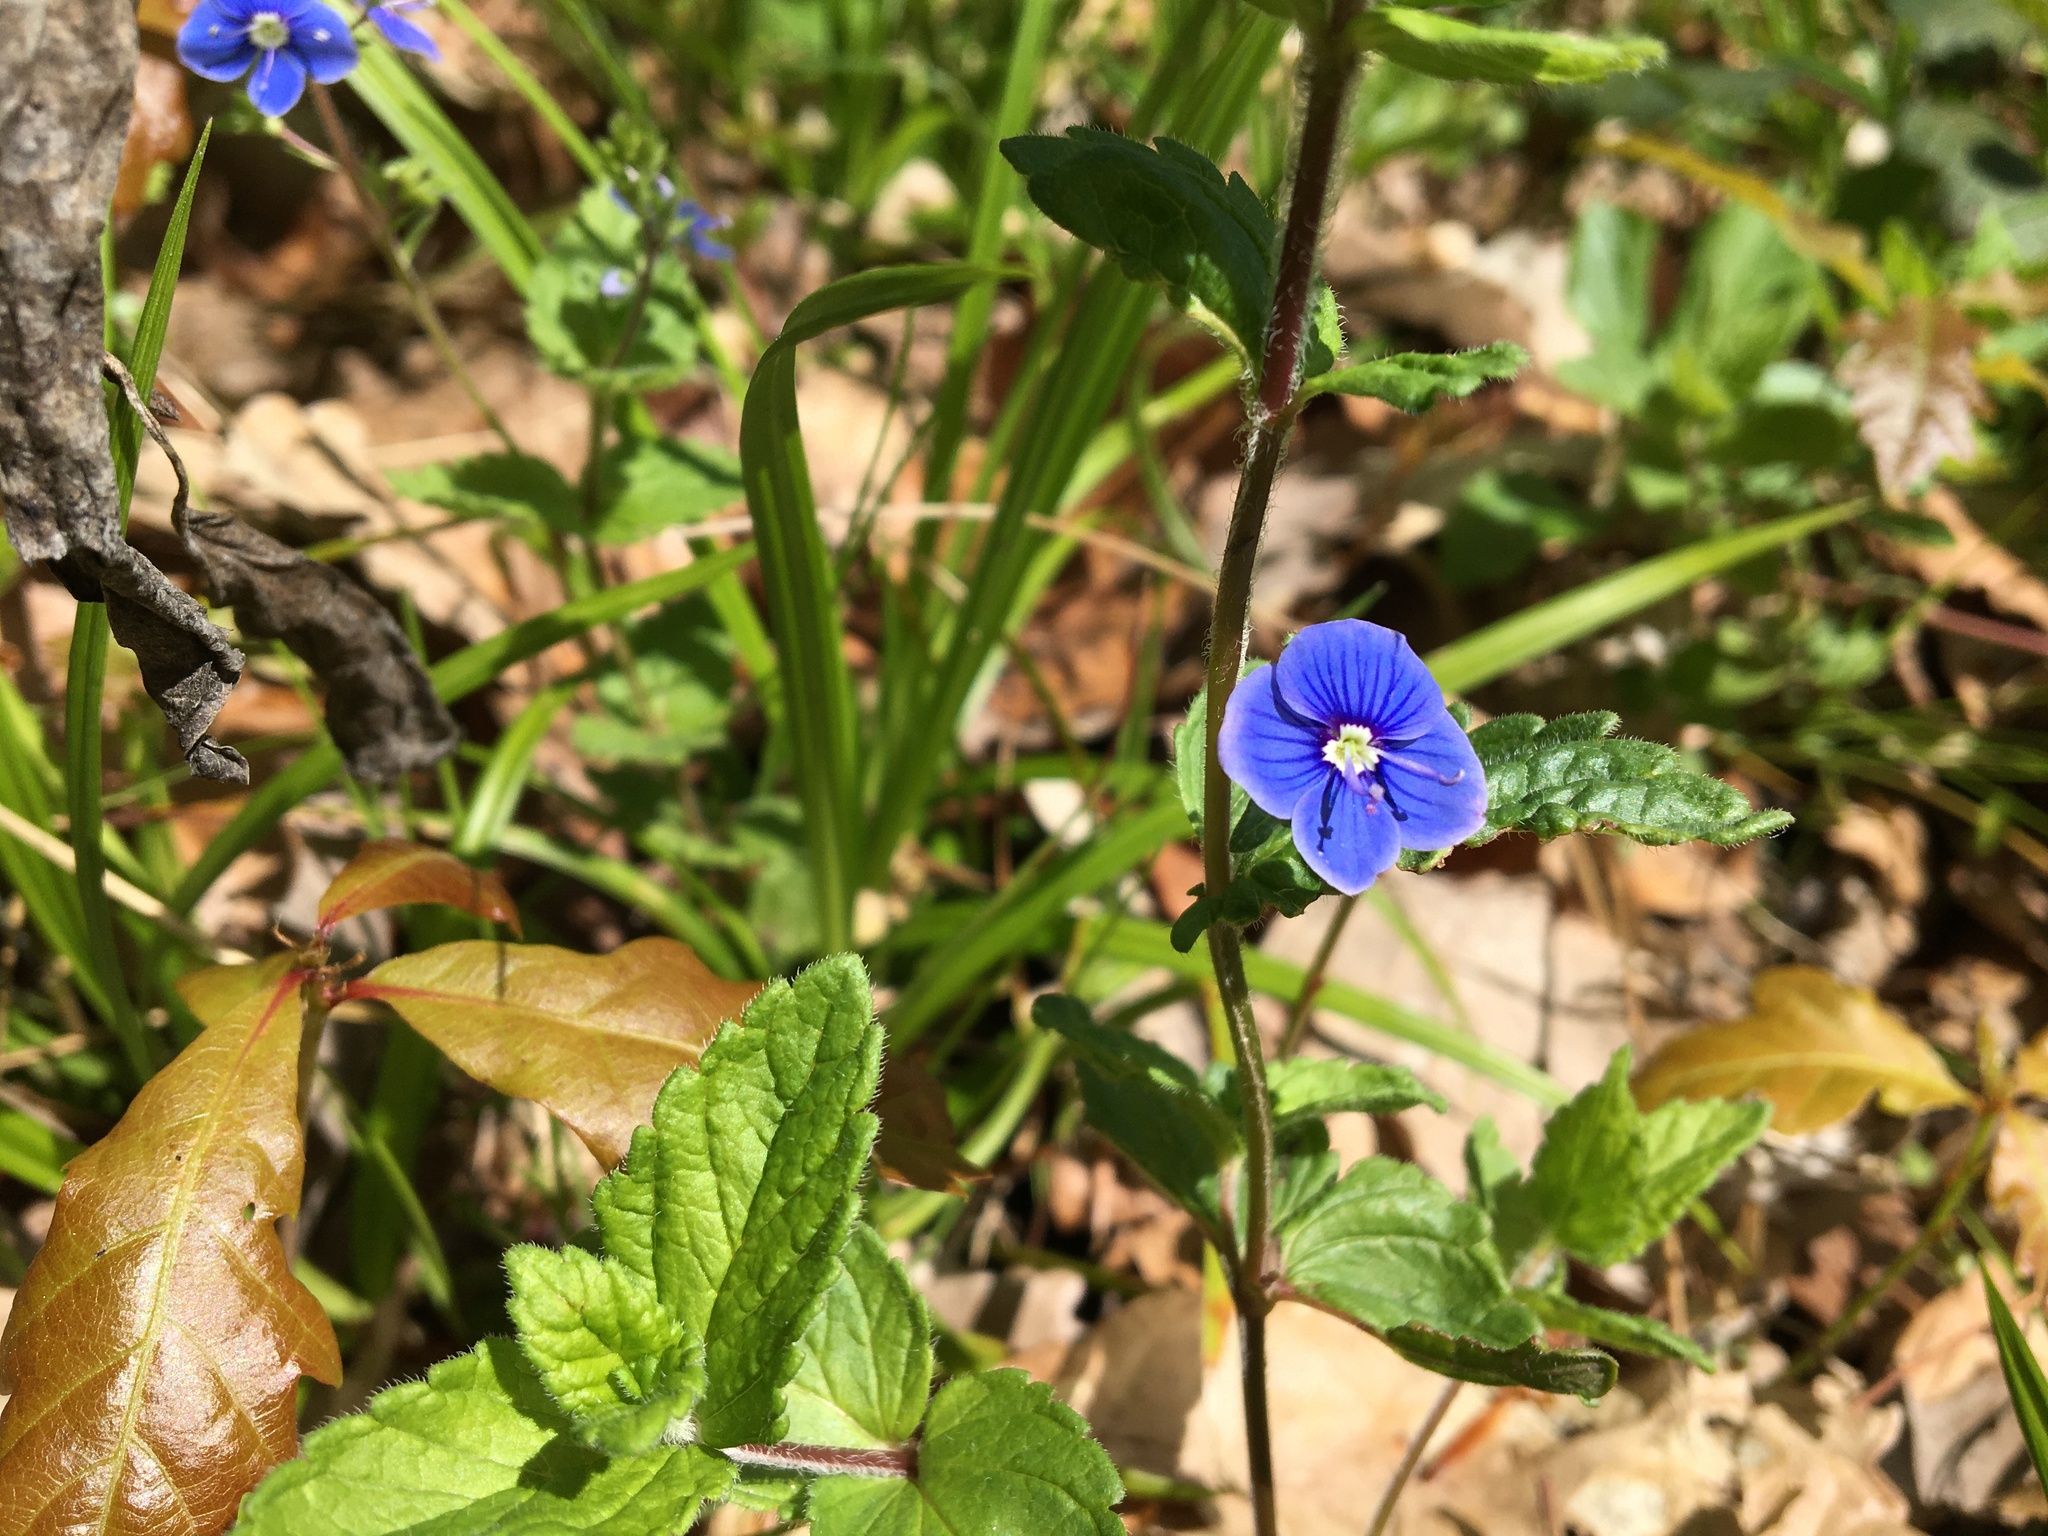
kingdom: Plantae
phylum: Tracheophyta
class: Magnoliopsida
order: Lamiales
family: Plantaginaceae
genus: Veronica
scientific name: Veronica chamaedrys
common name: Germander speedwell
